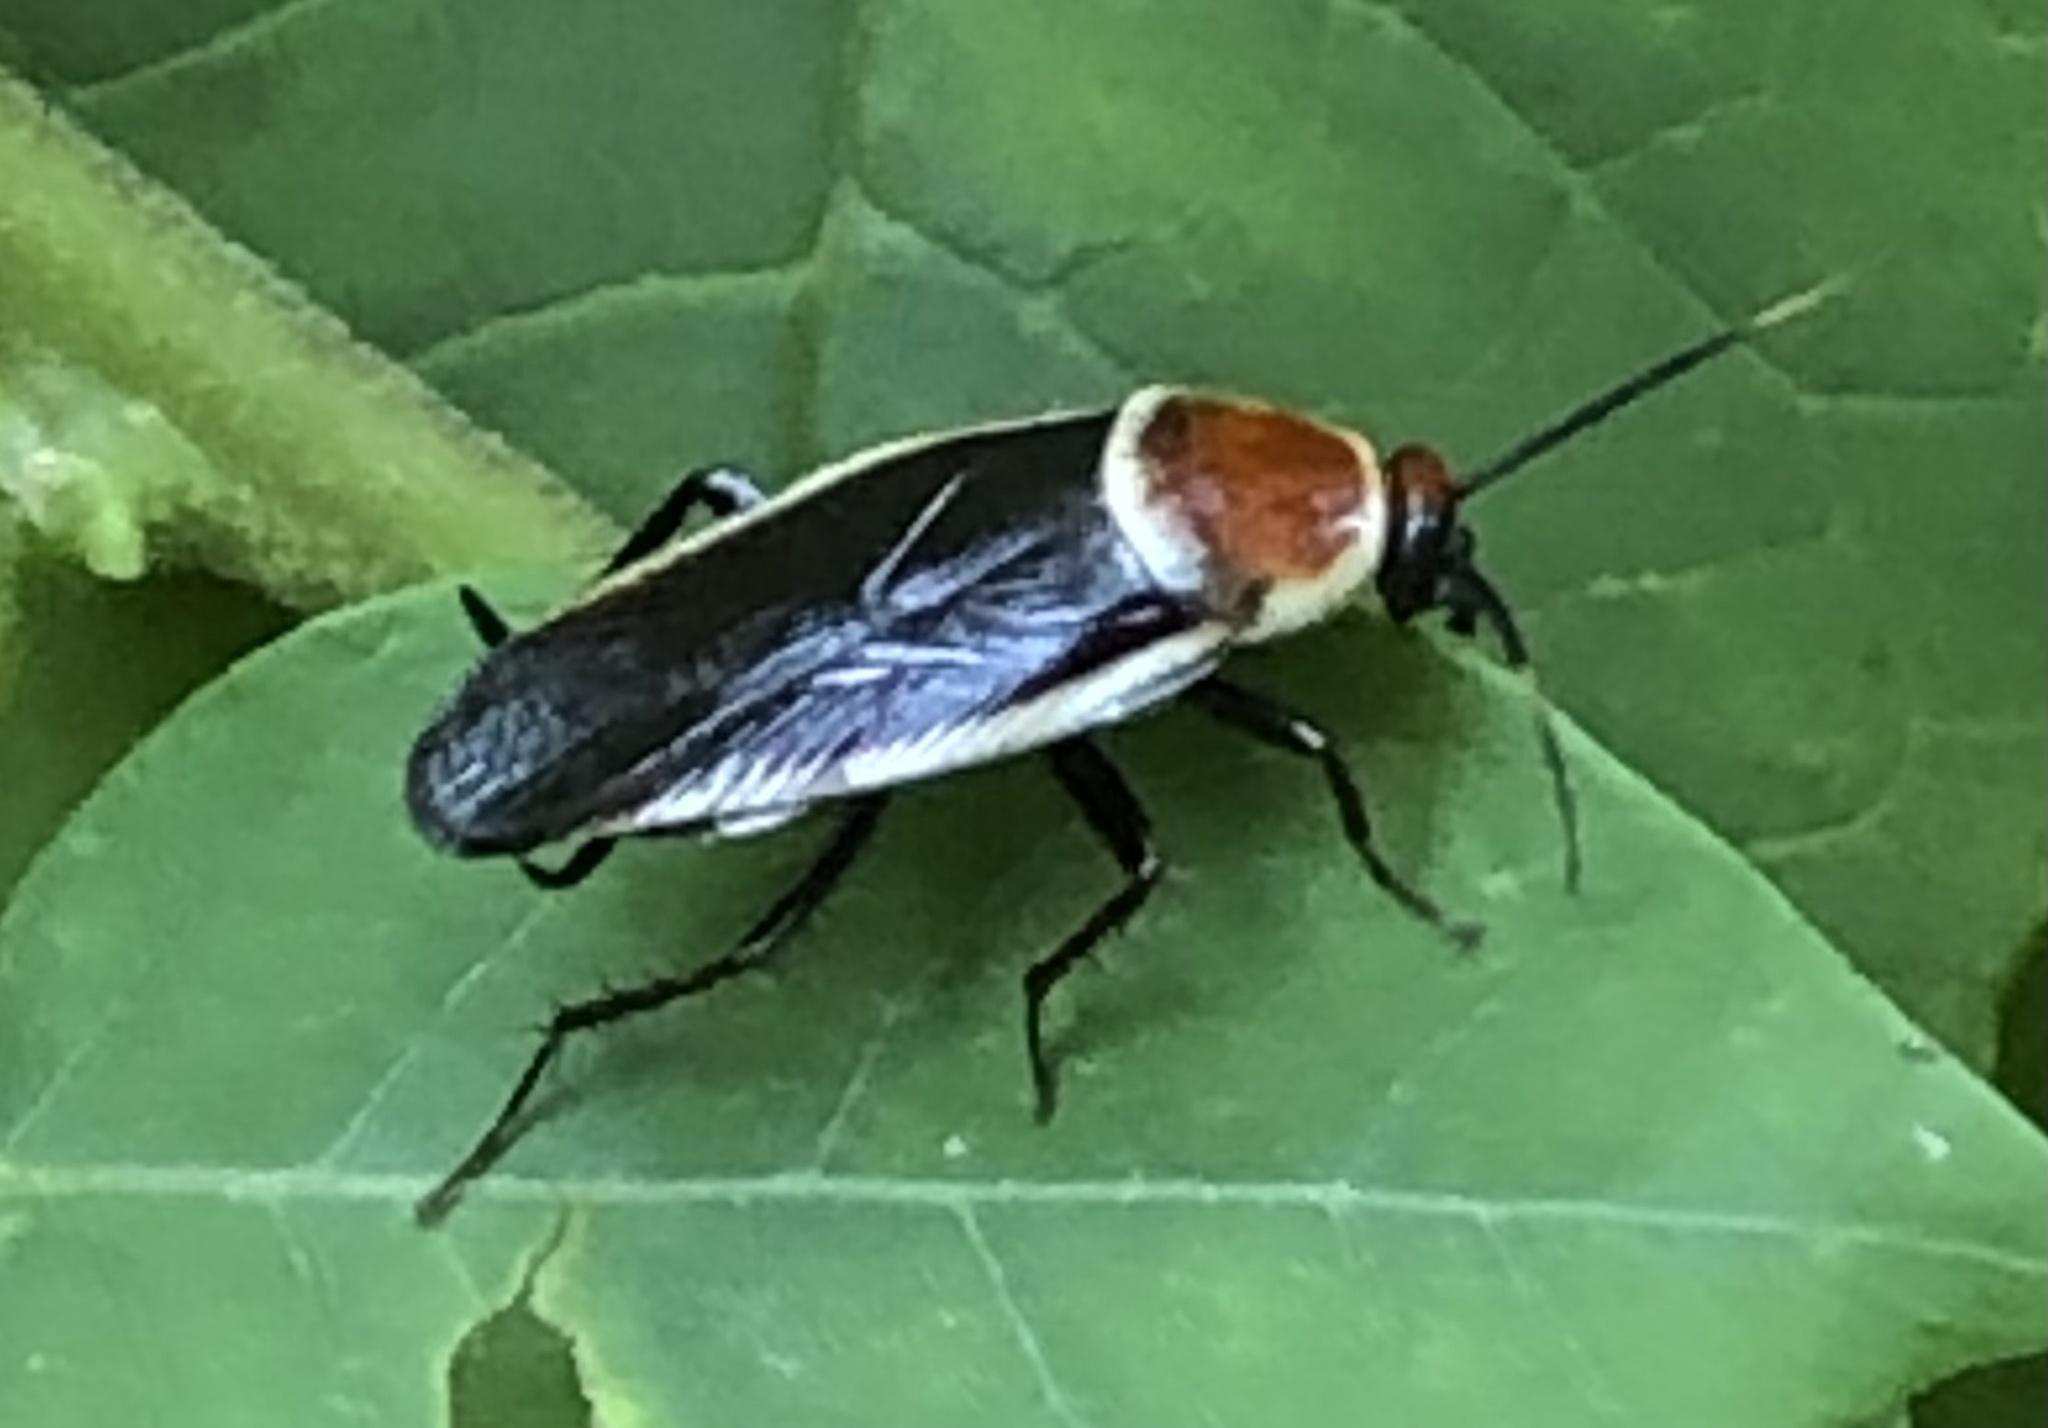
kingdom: Animalia
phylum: Arthropoda
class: Insecta
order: Blattodea
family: Ectobiidae
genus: Pseudomops
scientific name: Pseudomops septentrionalis
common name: Pale-bordered field cockroach
